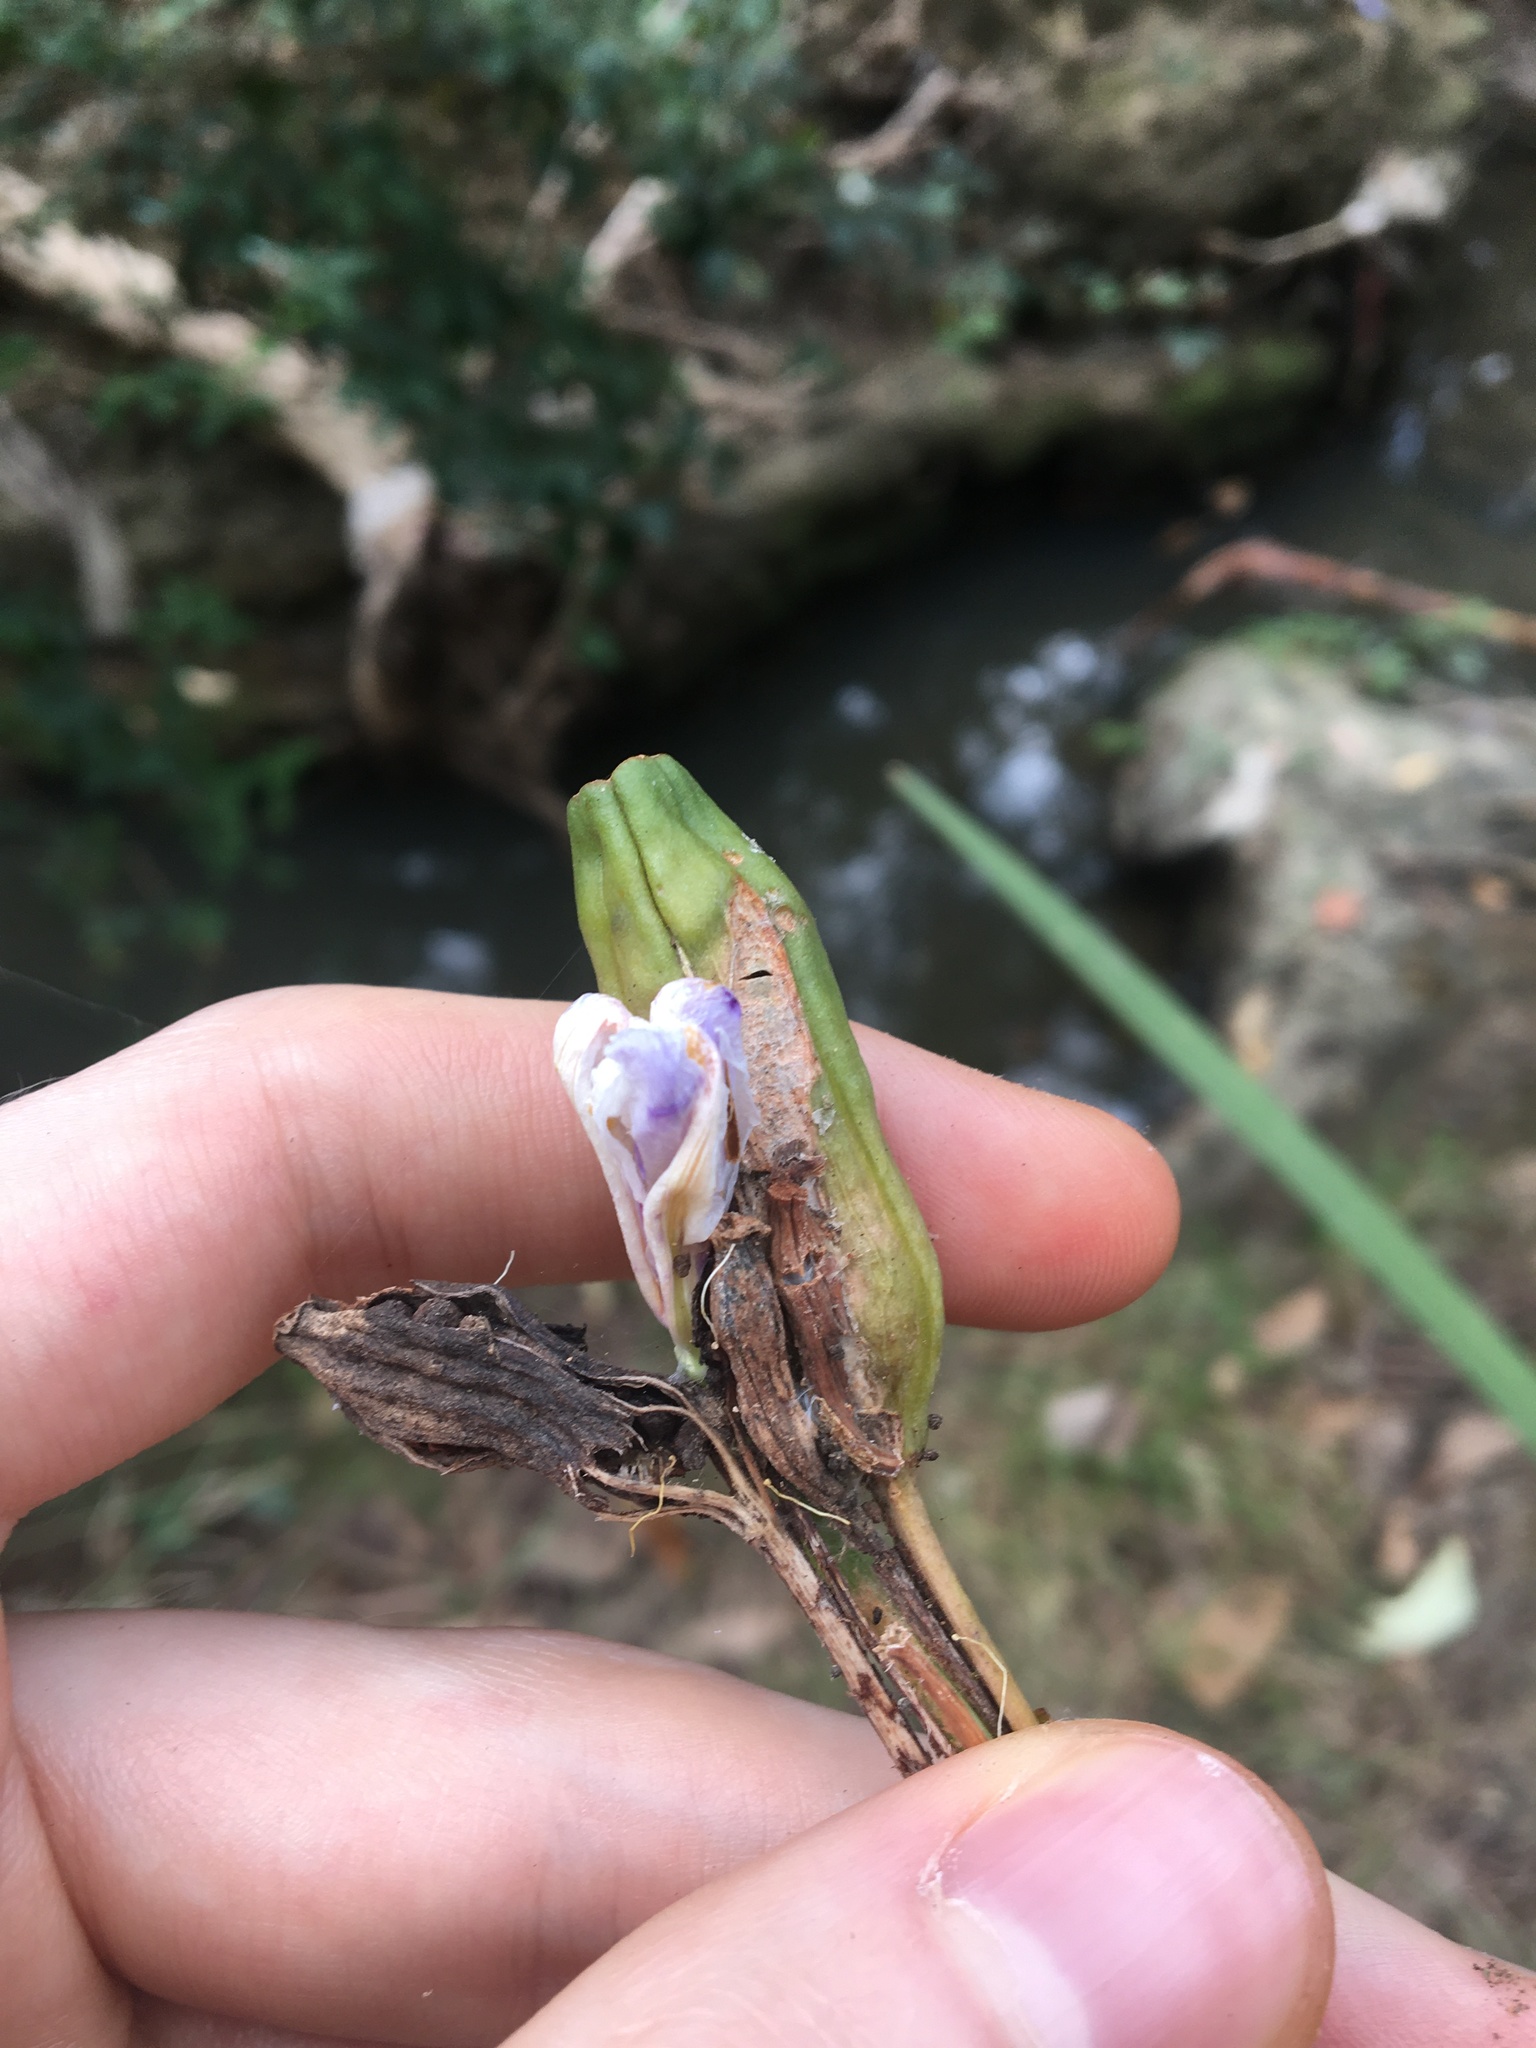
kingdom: Plantae
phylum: Tracheophyta
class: Liliopsida
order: Asparagales
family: Iridaceae
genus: Dietes
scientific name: Dietes grandiflora
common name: Wild iris
